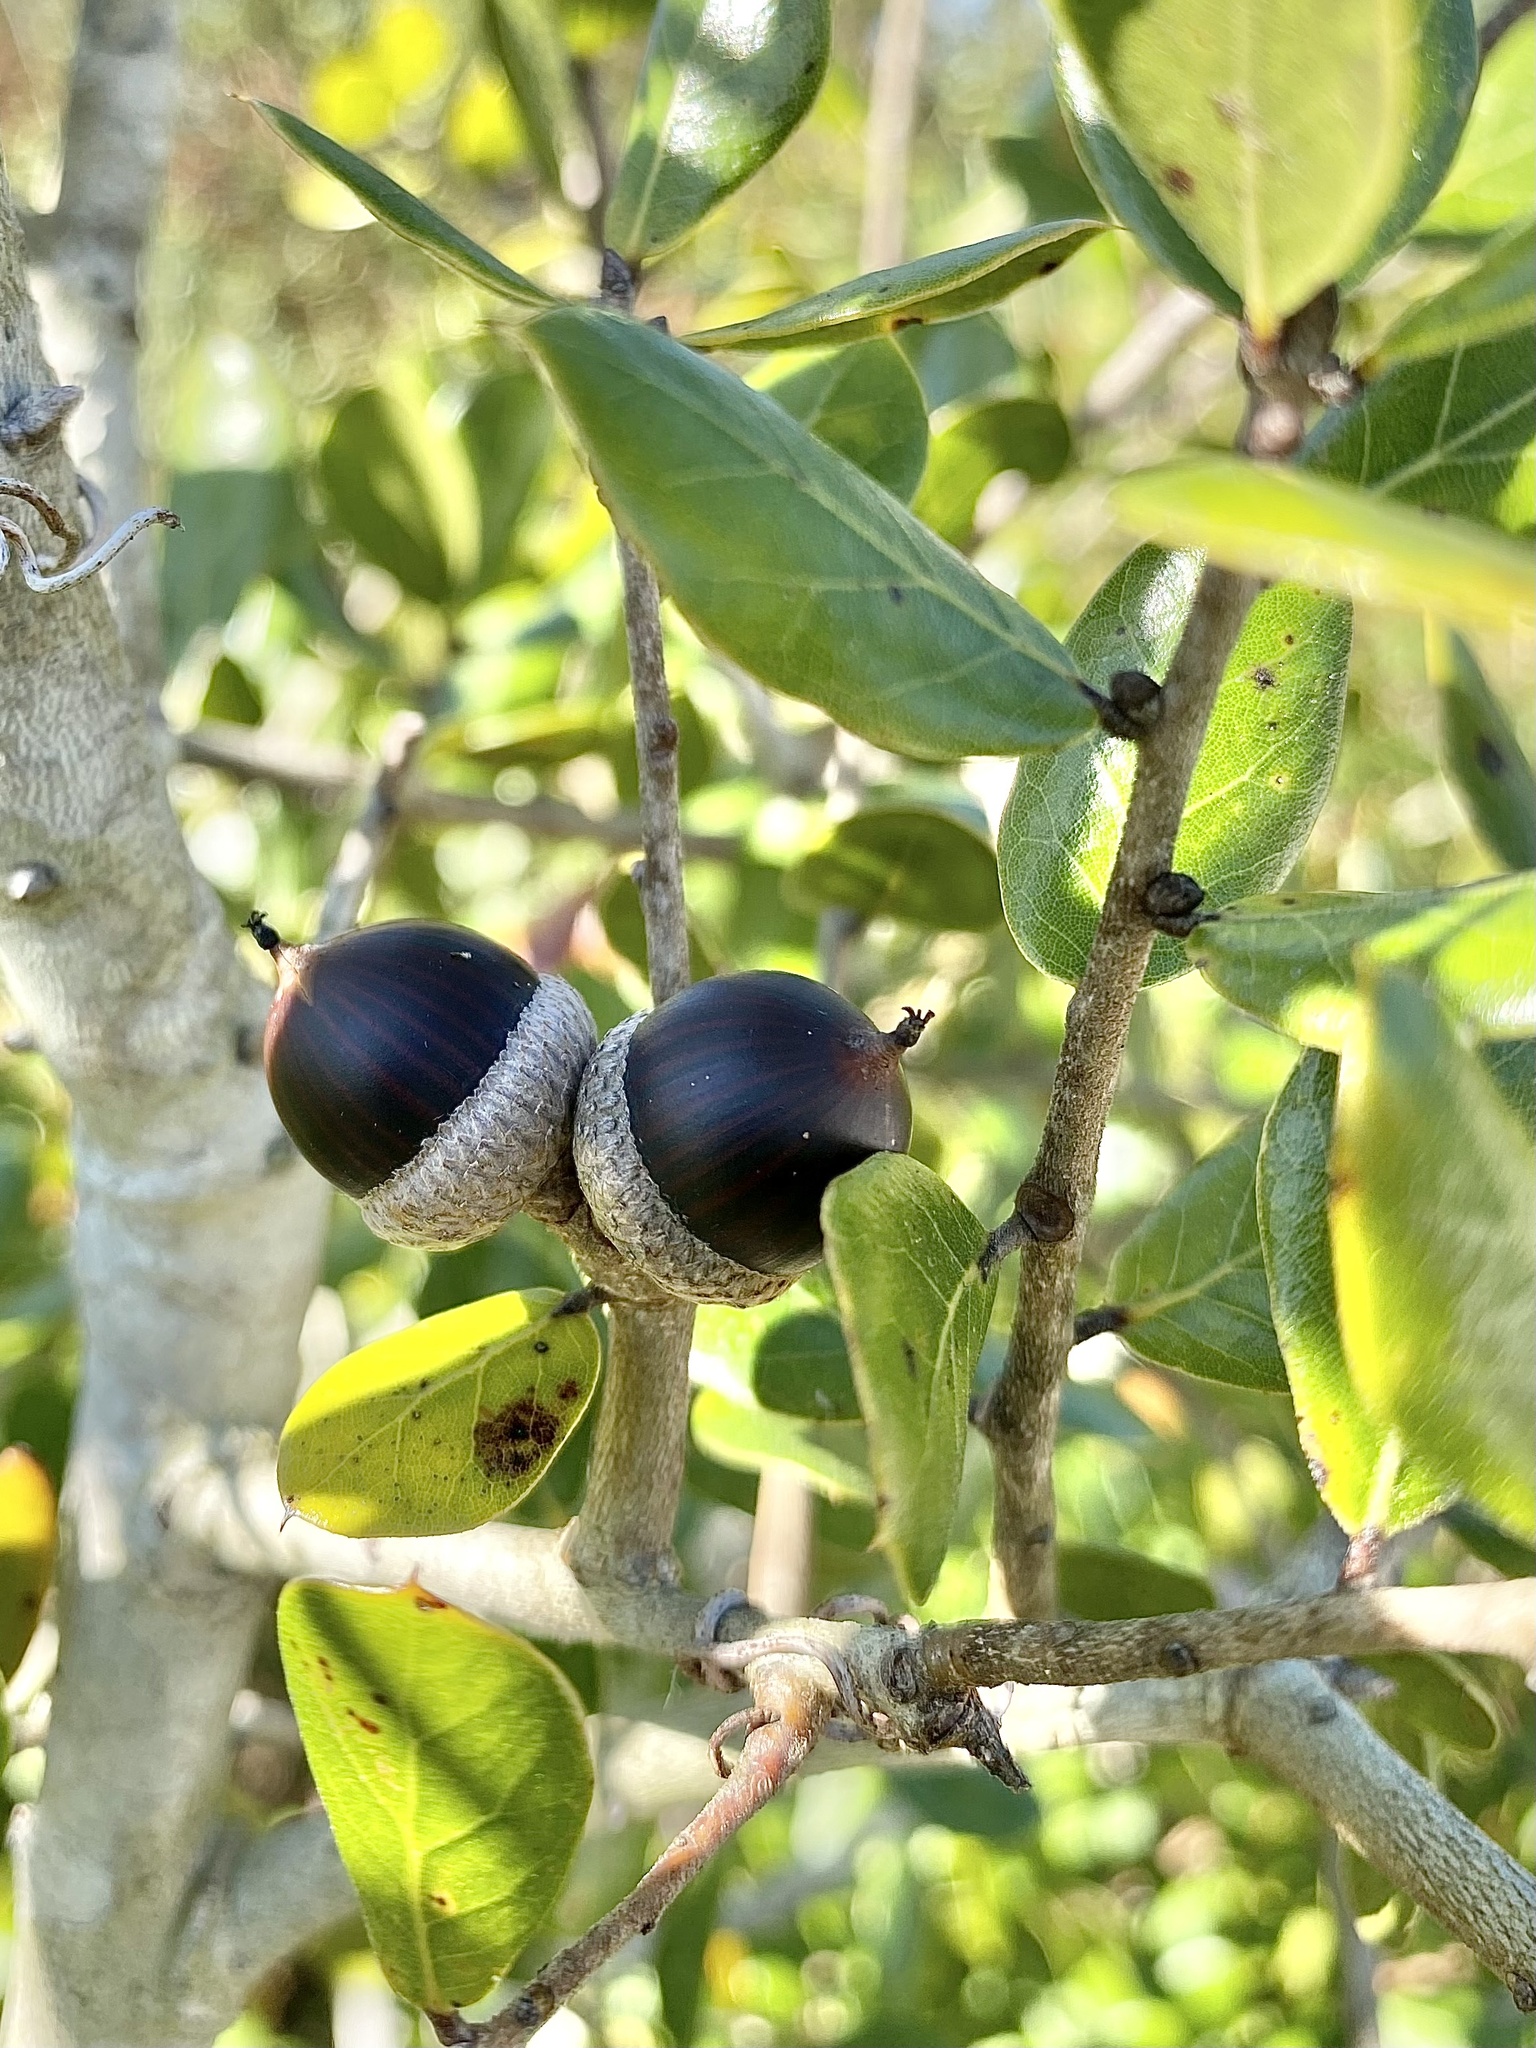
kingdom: Plantae
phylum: Tracheophyta
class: Magnoliopsida
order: Fagales
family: Fagaceae
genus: Quercus
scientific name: Quercus myrtifolia
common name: Myrtle oak
